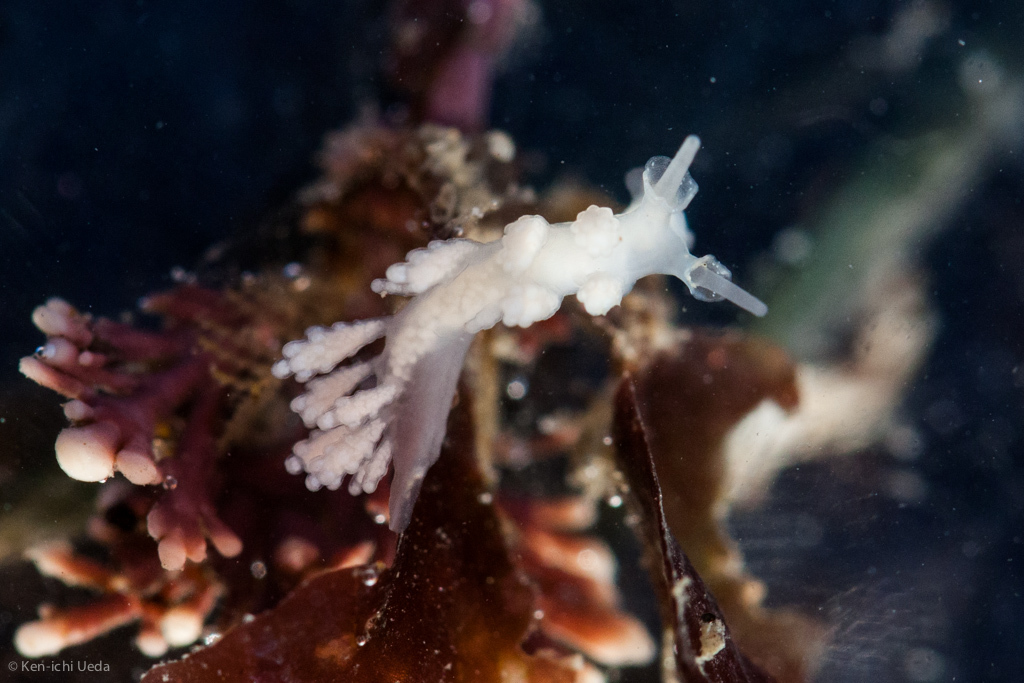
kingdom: Animalia
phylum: Mollusca
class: Gastropoda
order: Nudibranchia
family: Dotidae
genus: Doto
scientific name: Doto amyra
